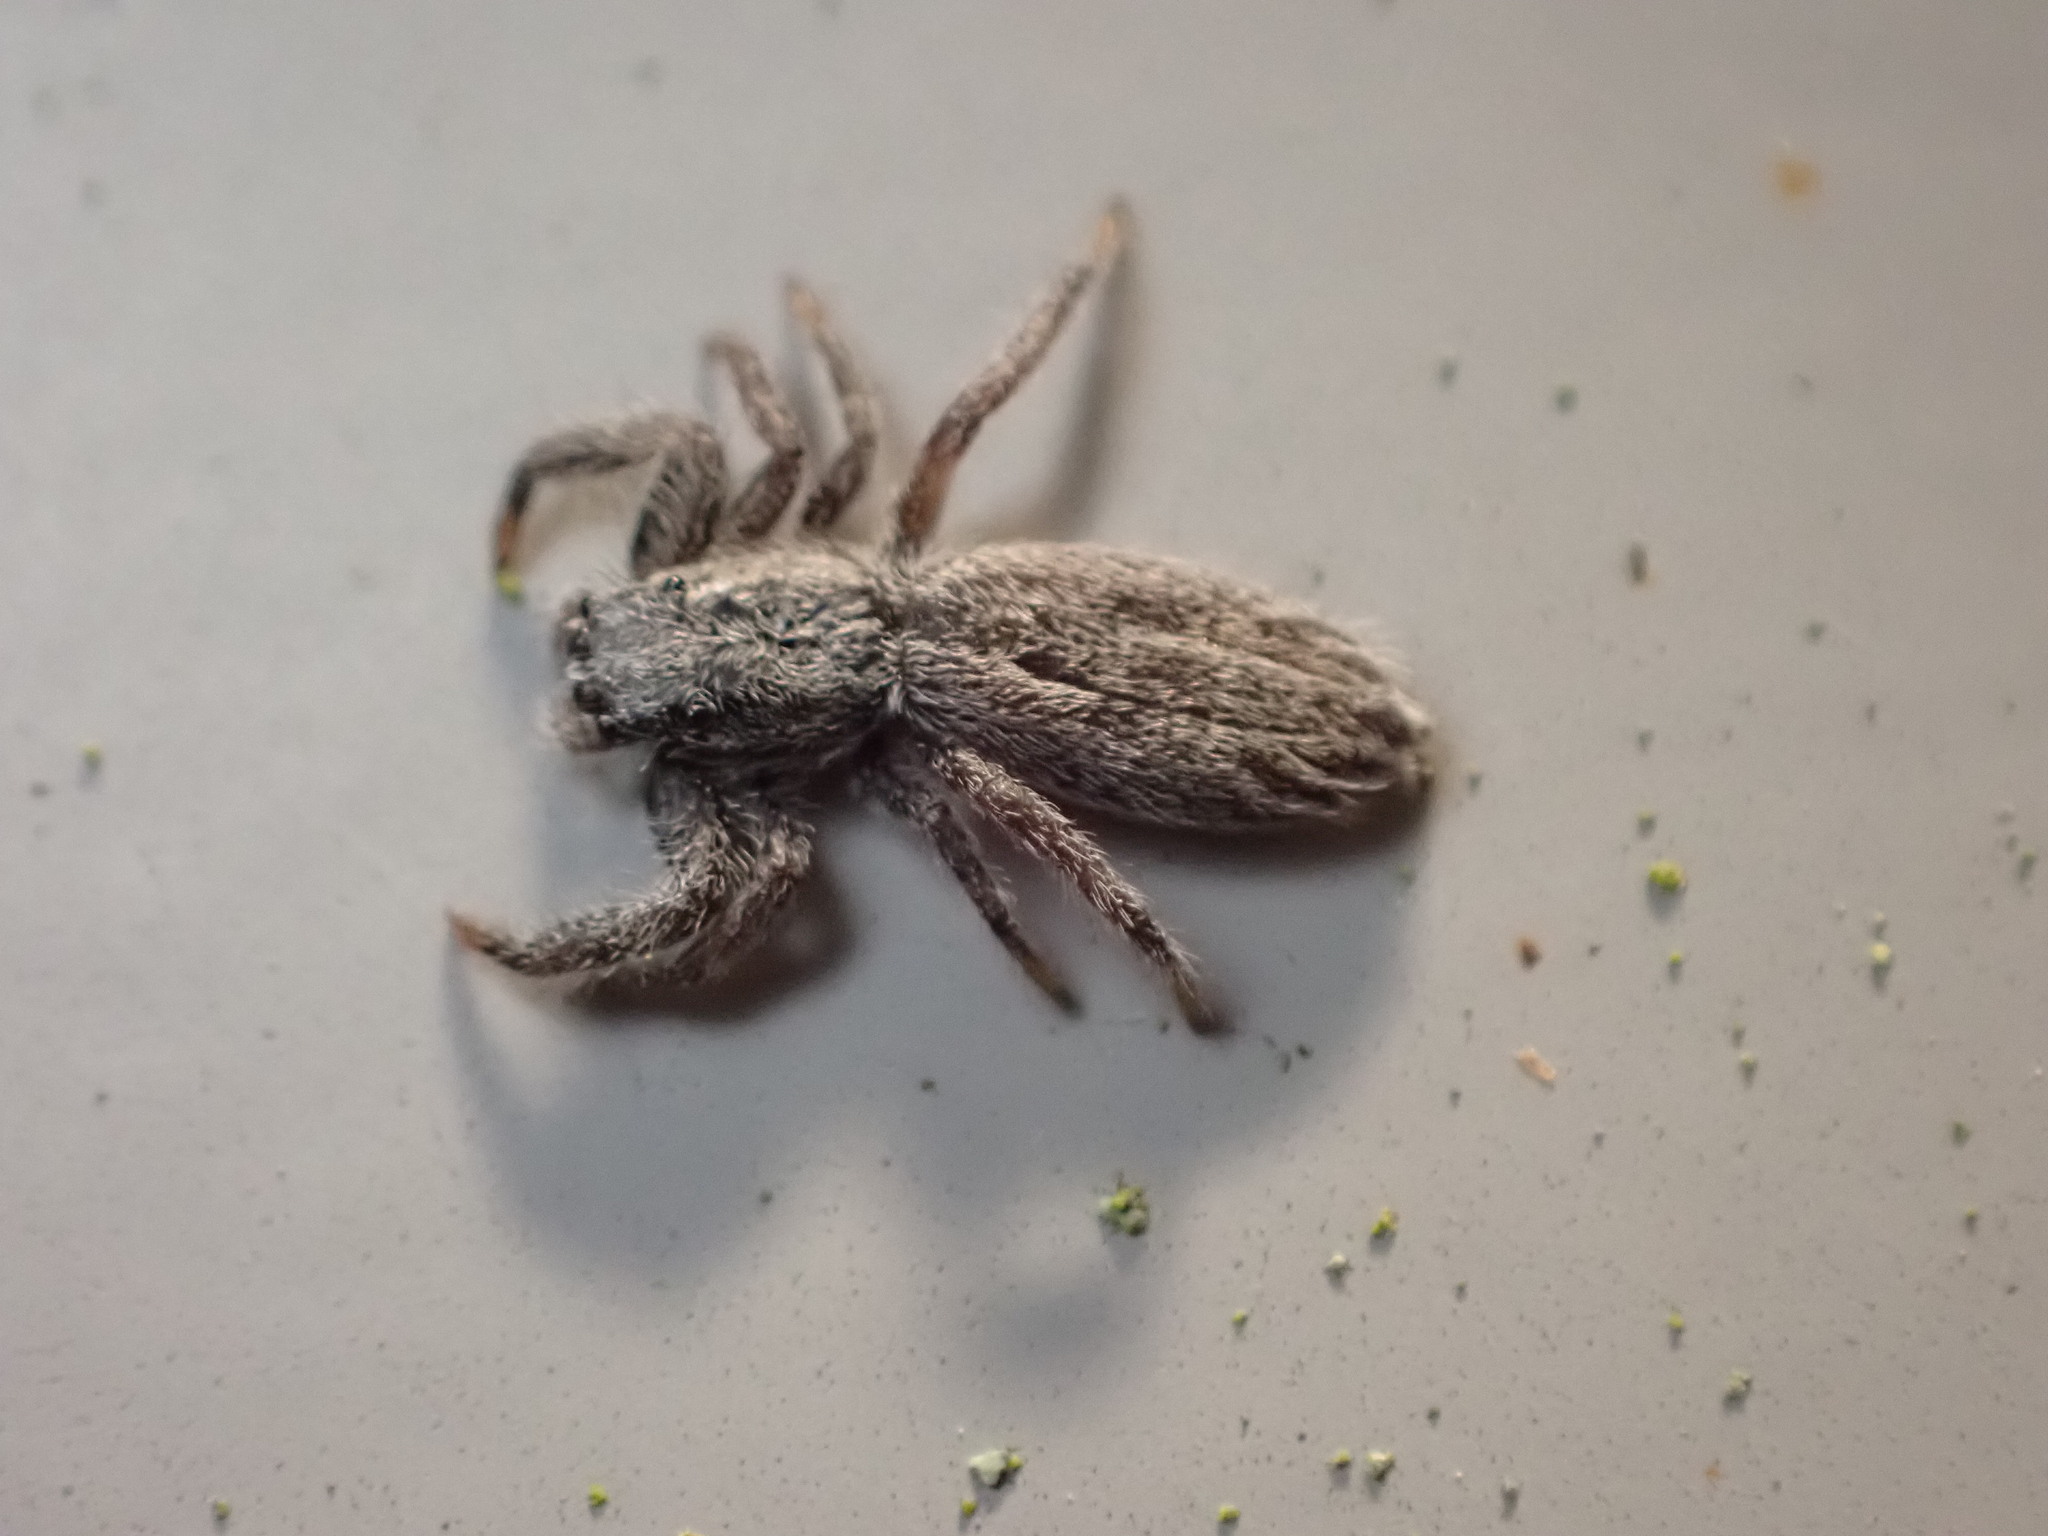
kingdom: Animalia
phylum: Arthropoda
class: Arachnida
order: Araneae
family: Salticidae
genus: Holoplatys
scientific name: Holoplatys apressus
